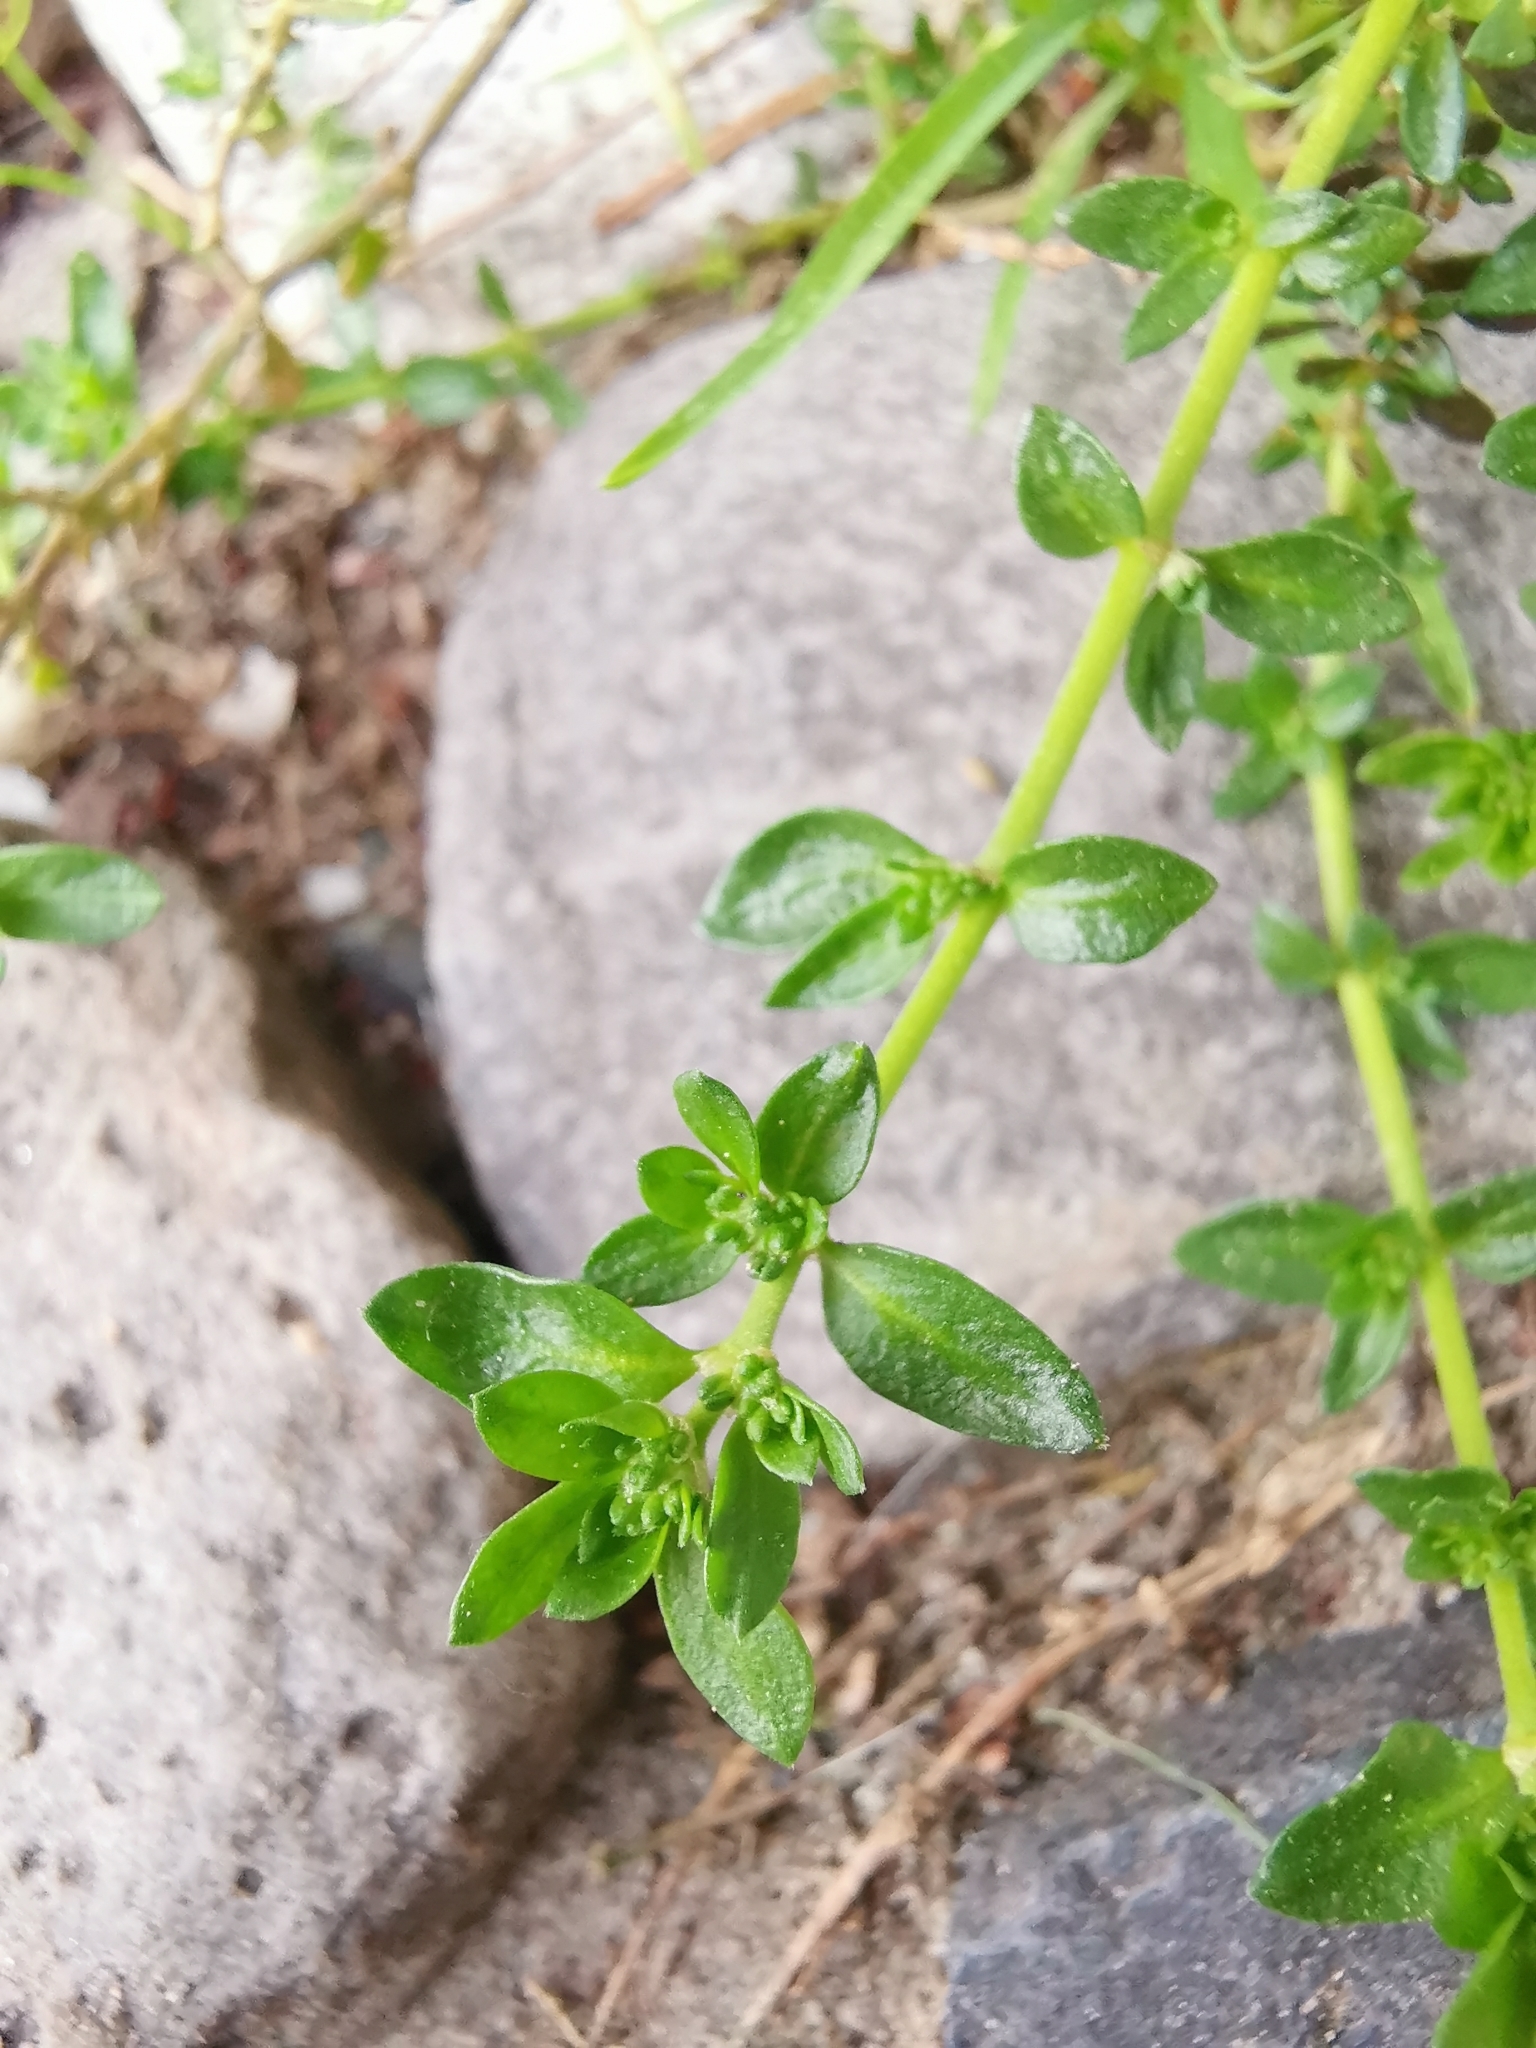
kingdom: Plantae
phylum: Tracheophyta
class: Magnoliopsida
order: Caryophyllales
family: Caryophyllaceae
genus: Herniaria
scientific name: Herniaria glabra
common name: Smooth rupturewort
